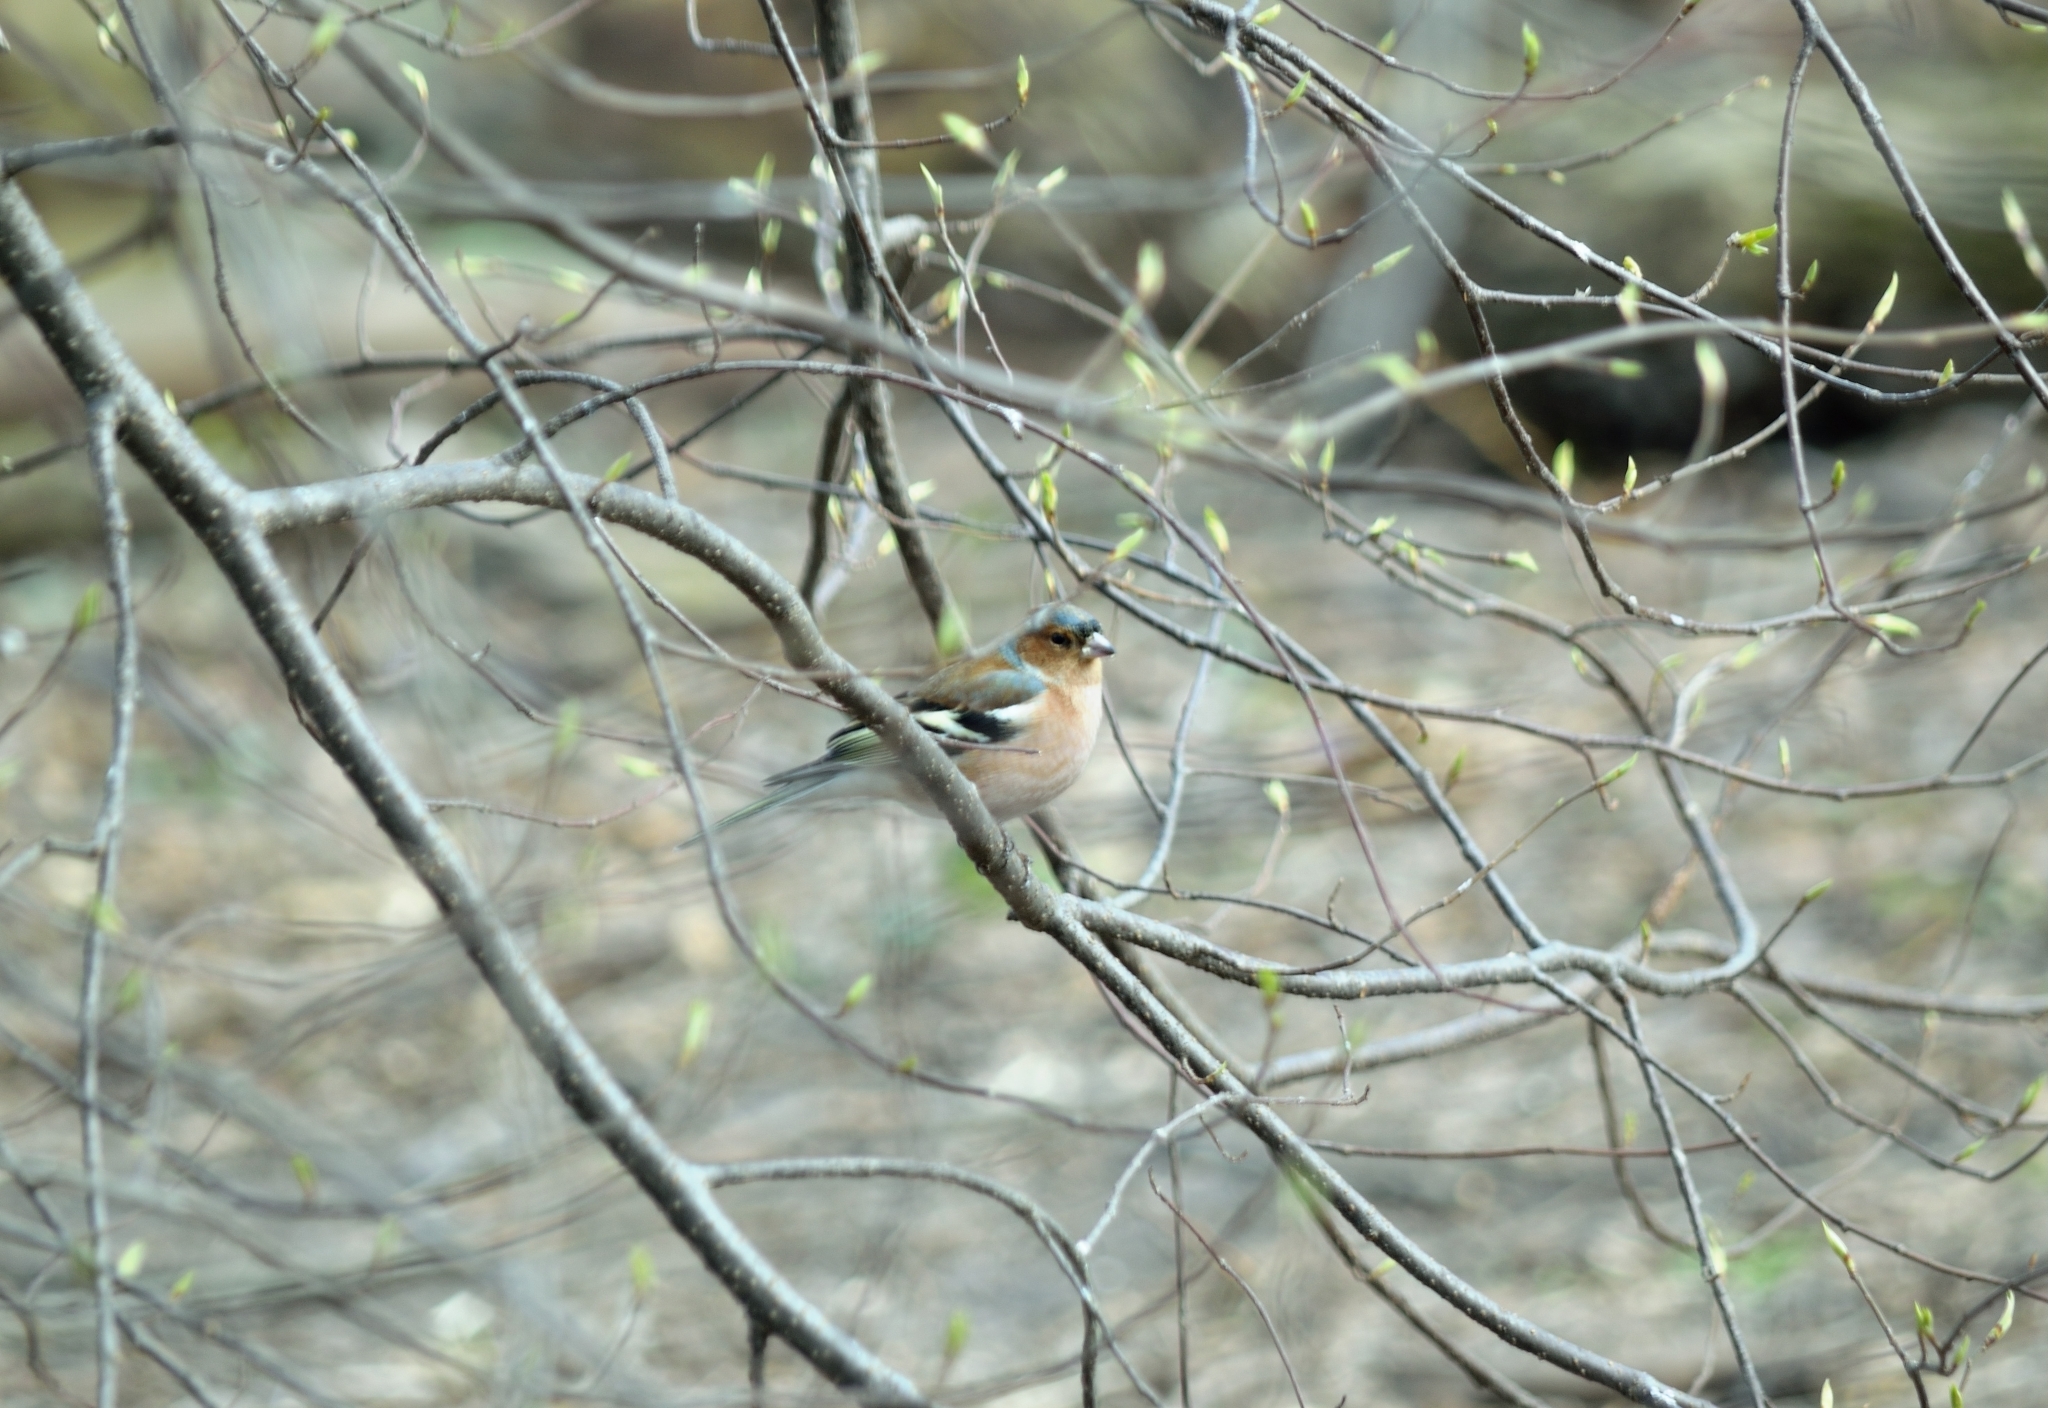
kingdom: Animalia
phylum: Chordata
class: Aves
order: Passeriformes
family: Fringillidae
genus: Fringilla
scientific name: Fringilla coelebs
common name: Common chaffinch
